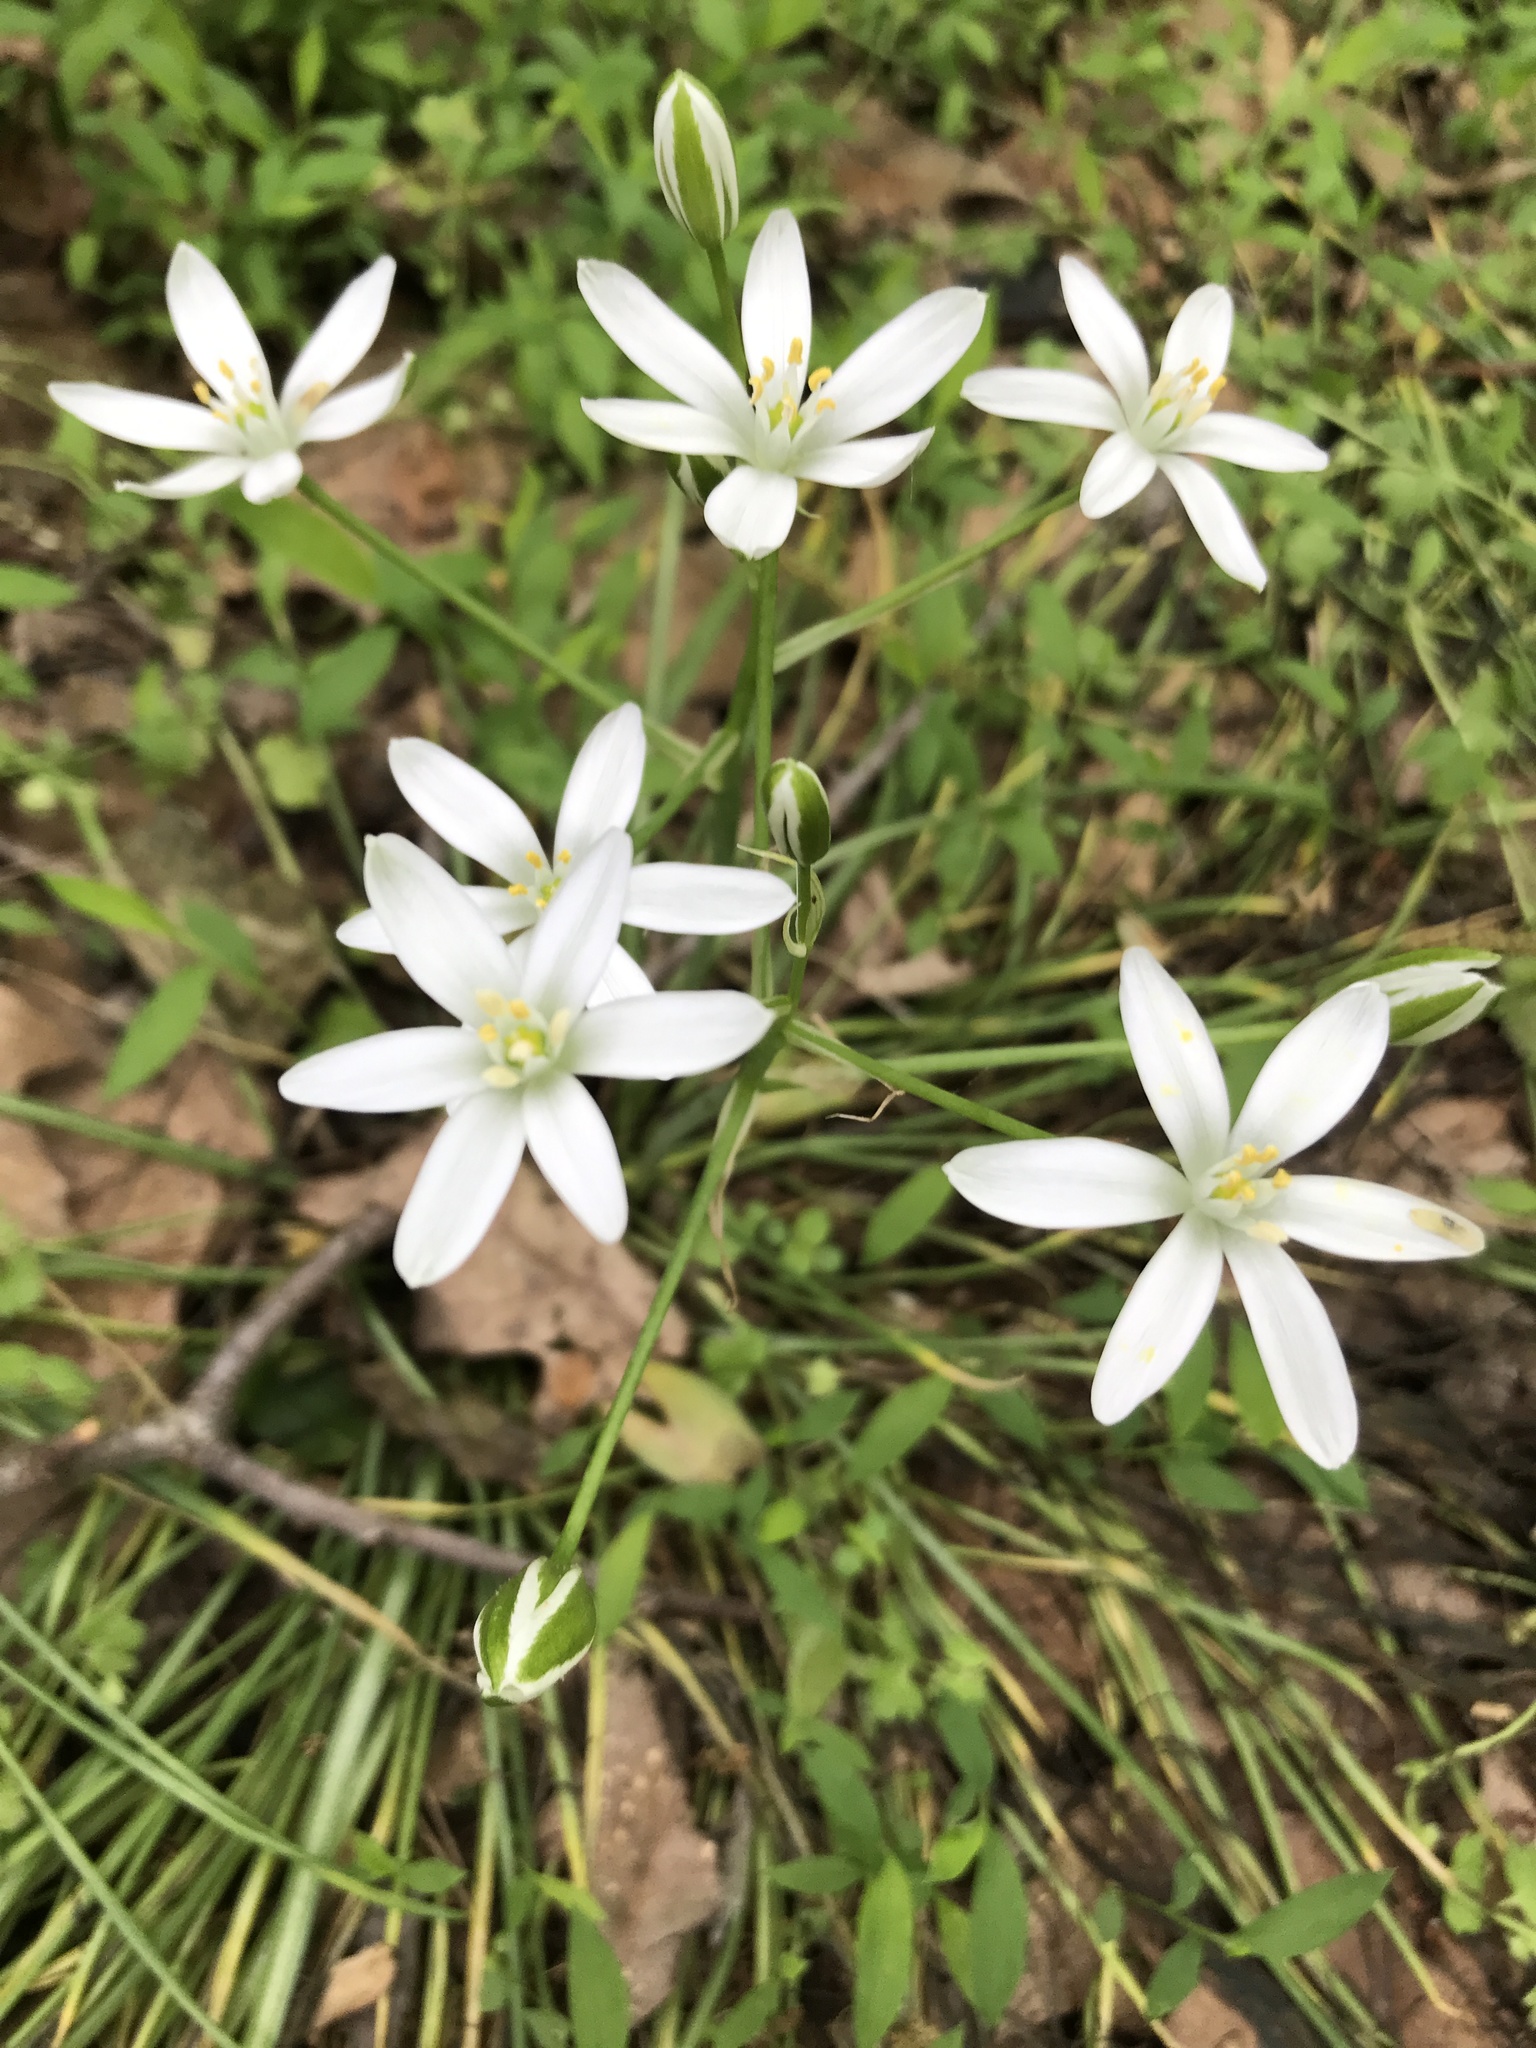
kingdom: Plantae
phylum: Tracheophyta
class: Liliopsida
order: Asparagales
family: Asparagaceae
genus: Ornithogalum
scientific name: Ornithogalum umbellatum
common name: Garden star-of-bethlehem
